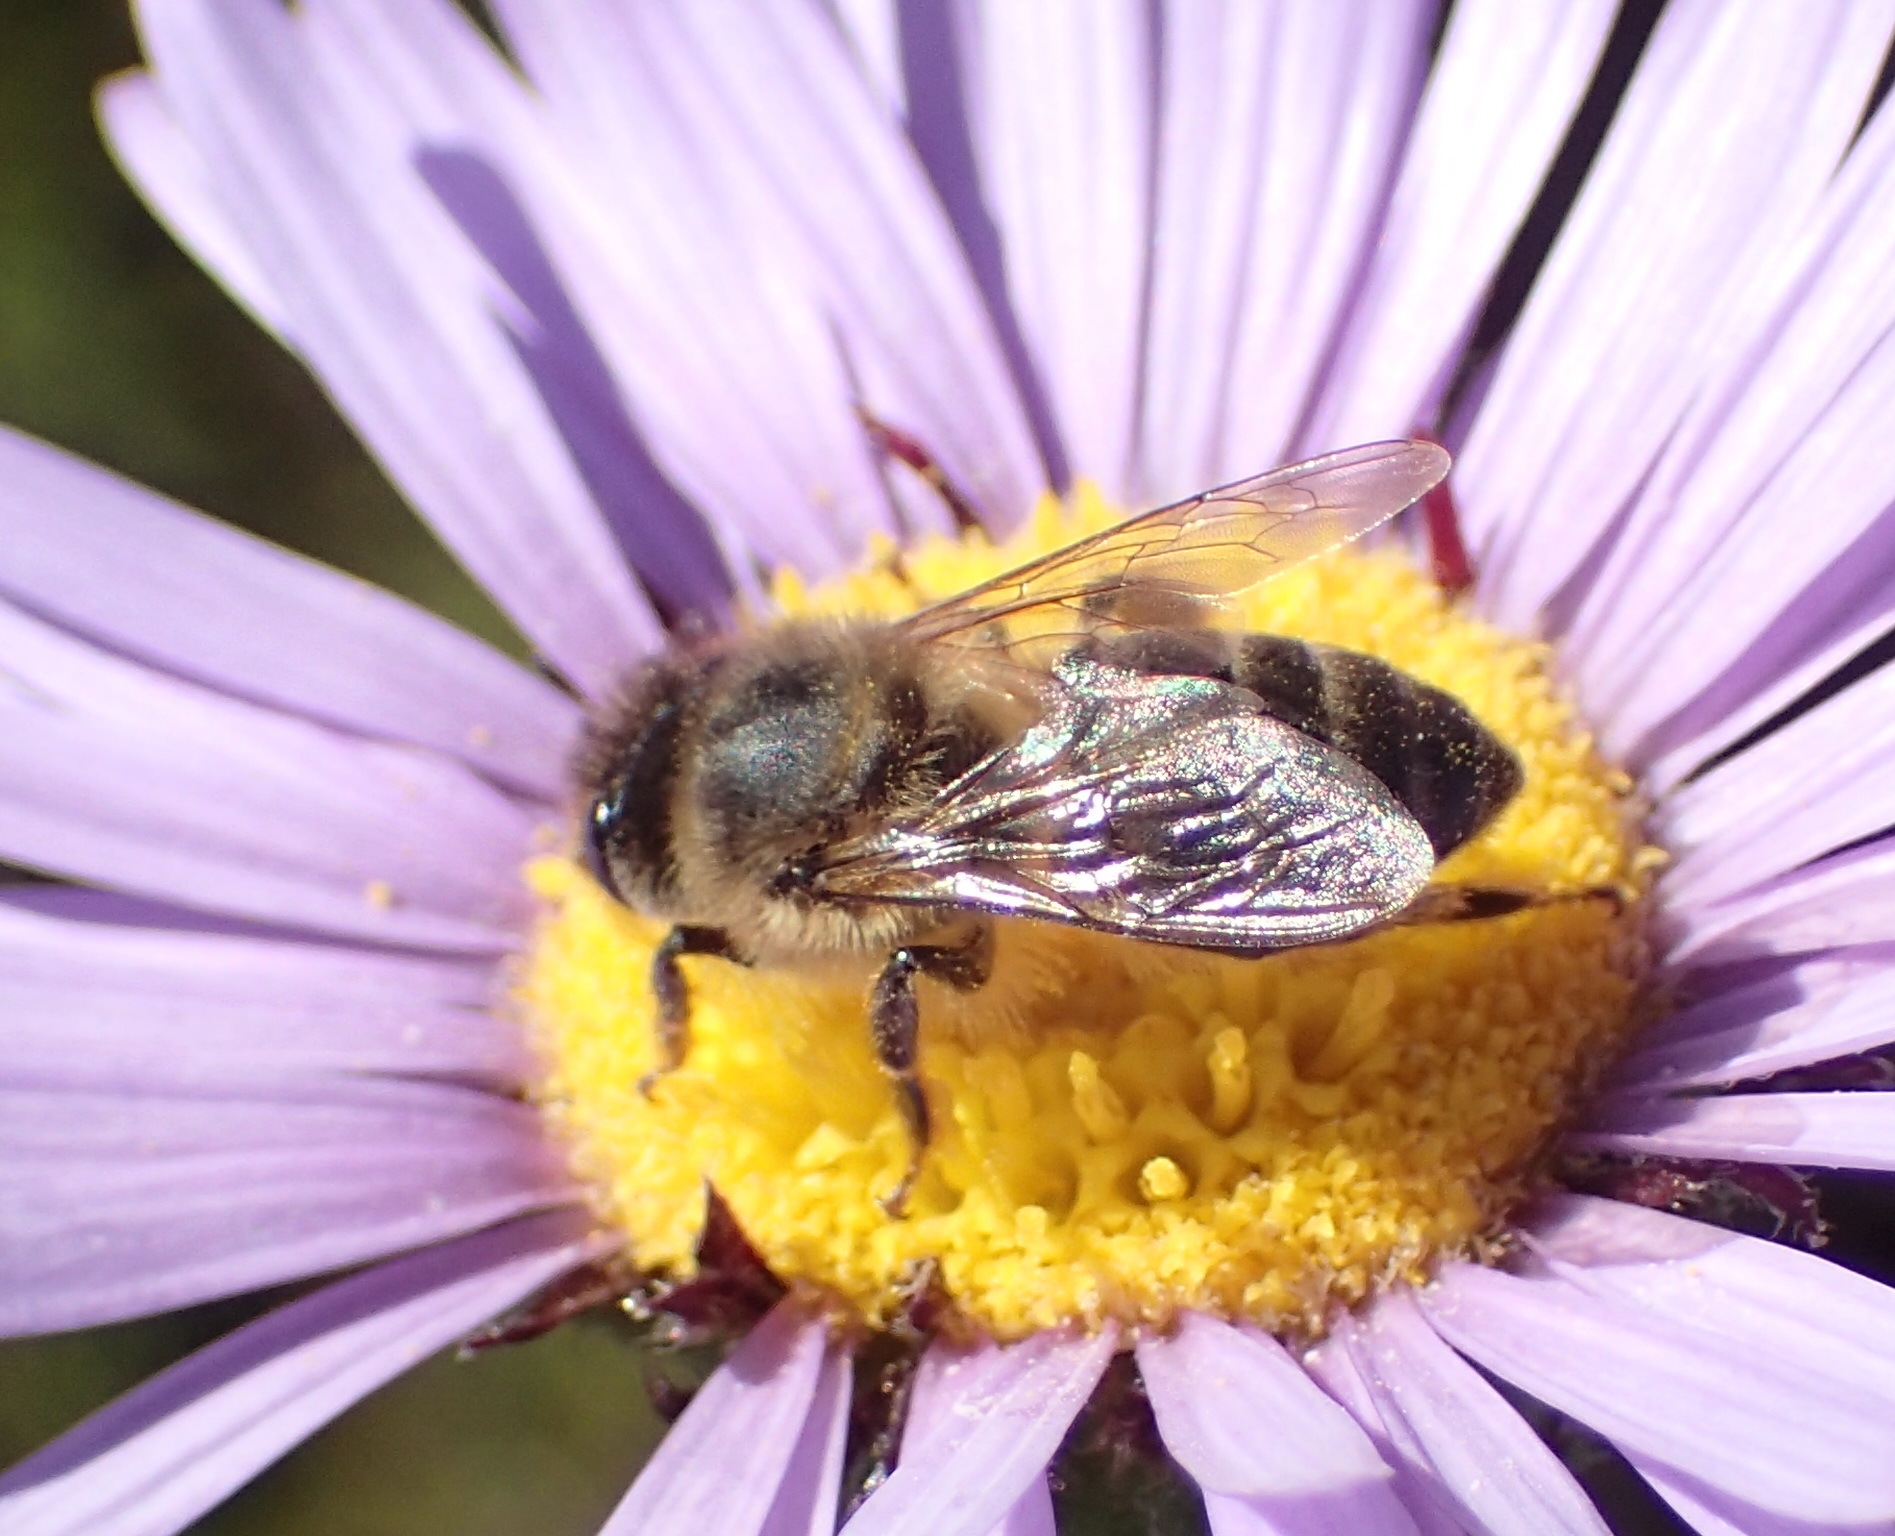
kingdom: Animalia
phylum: Arthropoda
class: Insecta
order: Hymenoptera
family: Apidae
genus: Apis
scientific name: Apis mellifera
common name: Honey bee
